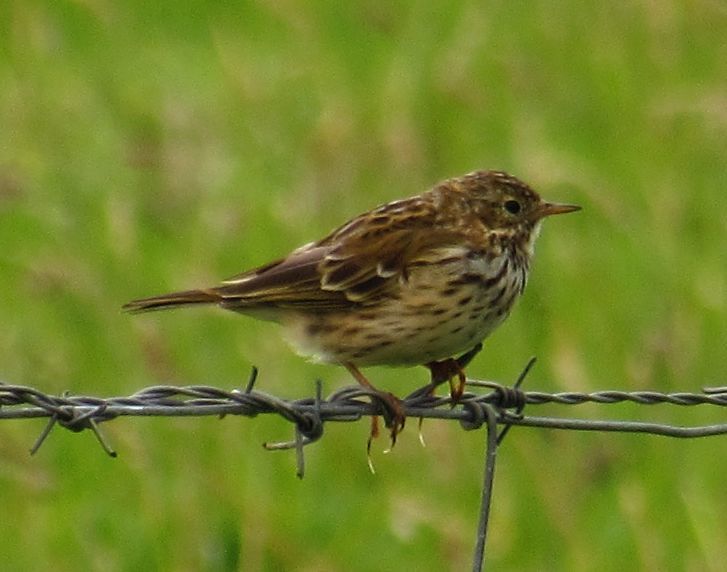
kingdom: Animalia
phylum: Chordata
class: Aves
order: Passeriformes
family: Motacillidae
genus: Anthus
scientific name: Anthus pratensis
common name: Meadow pipit
